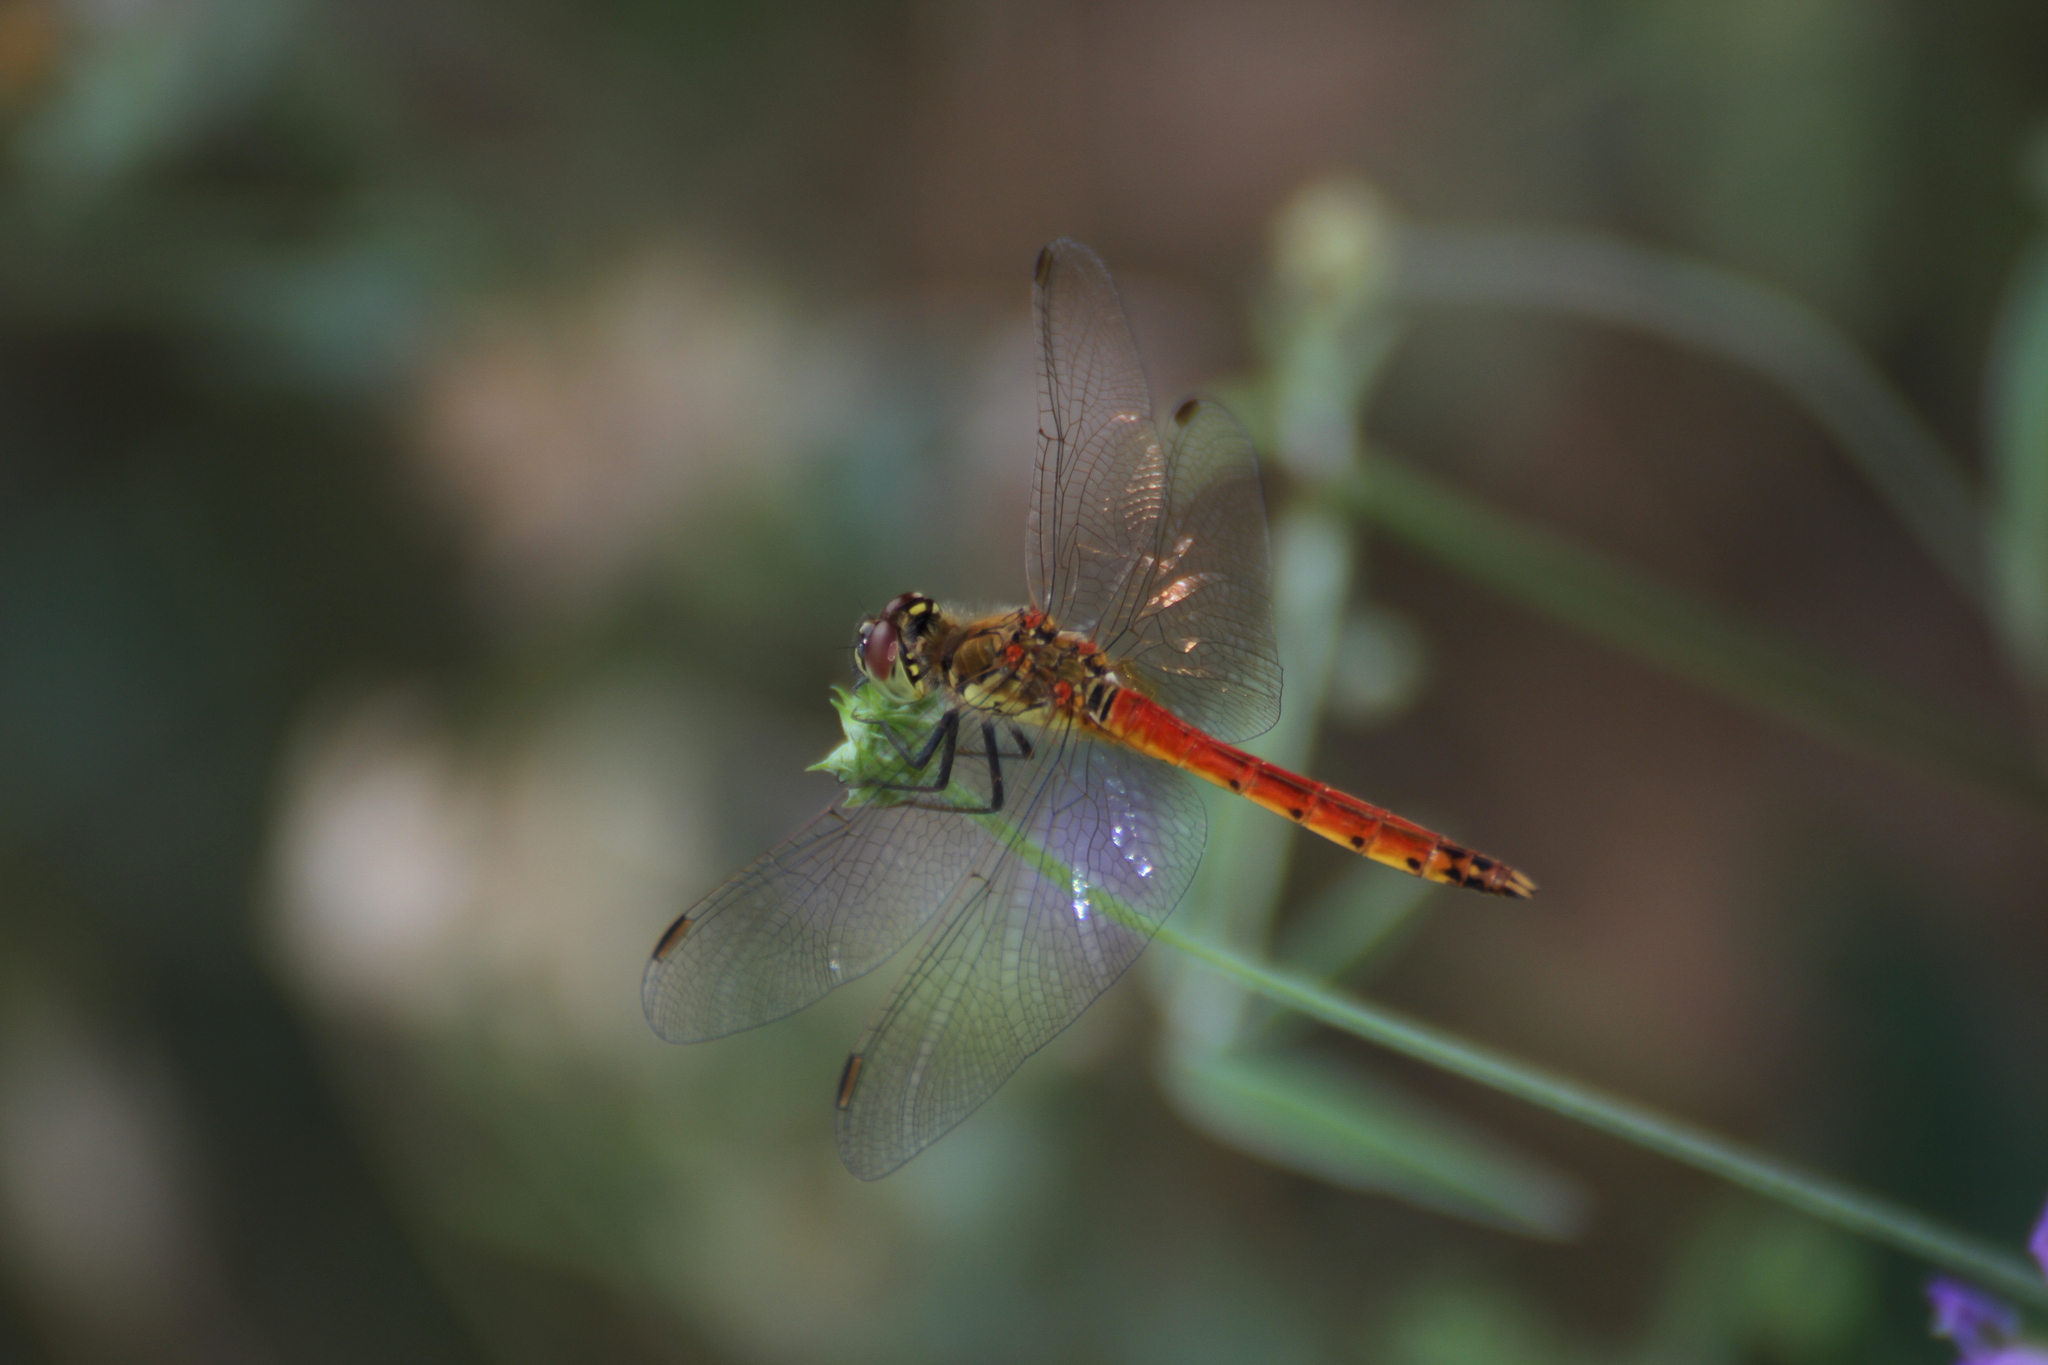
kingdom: Animalia
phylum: Arthropoda
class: Insecta
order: Odonata
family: Libellulidae
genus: Sympetrum
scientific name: Sympetrum depressiusculum
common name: Spotted darter
